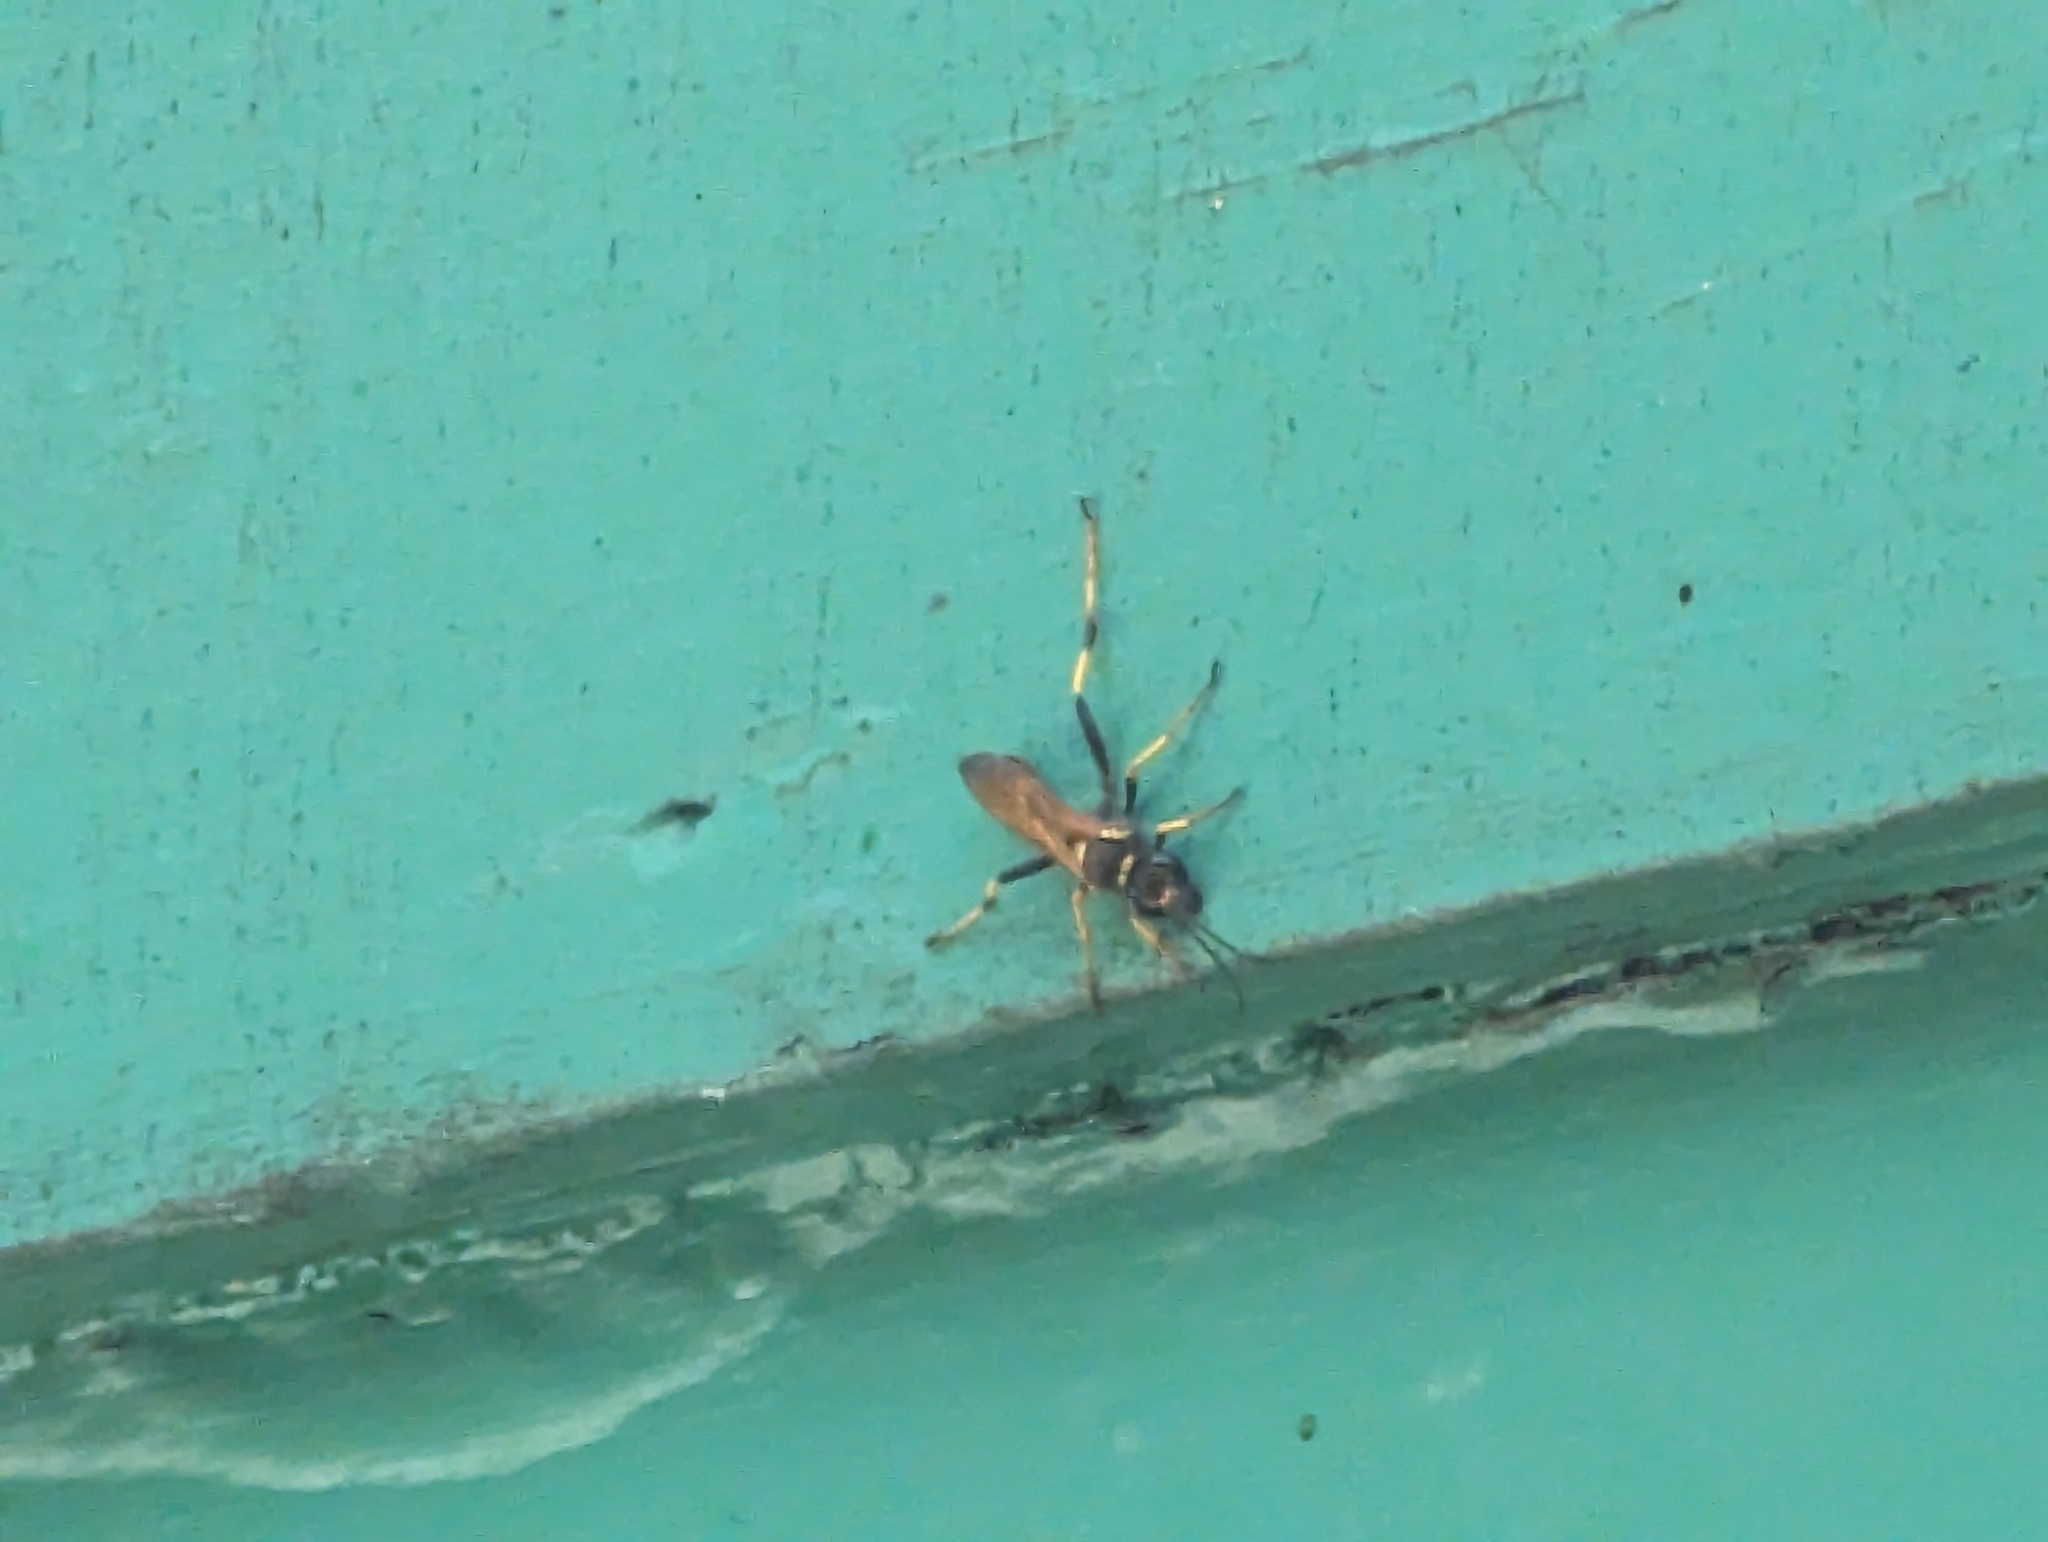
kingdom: Animalia
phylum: Arthropoda
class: Insecta
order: Hymenoptera
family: Sphecidae
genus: Sceliphron
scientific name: Sceliphron caementarium
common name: Mud dauber
